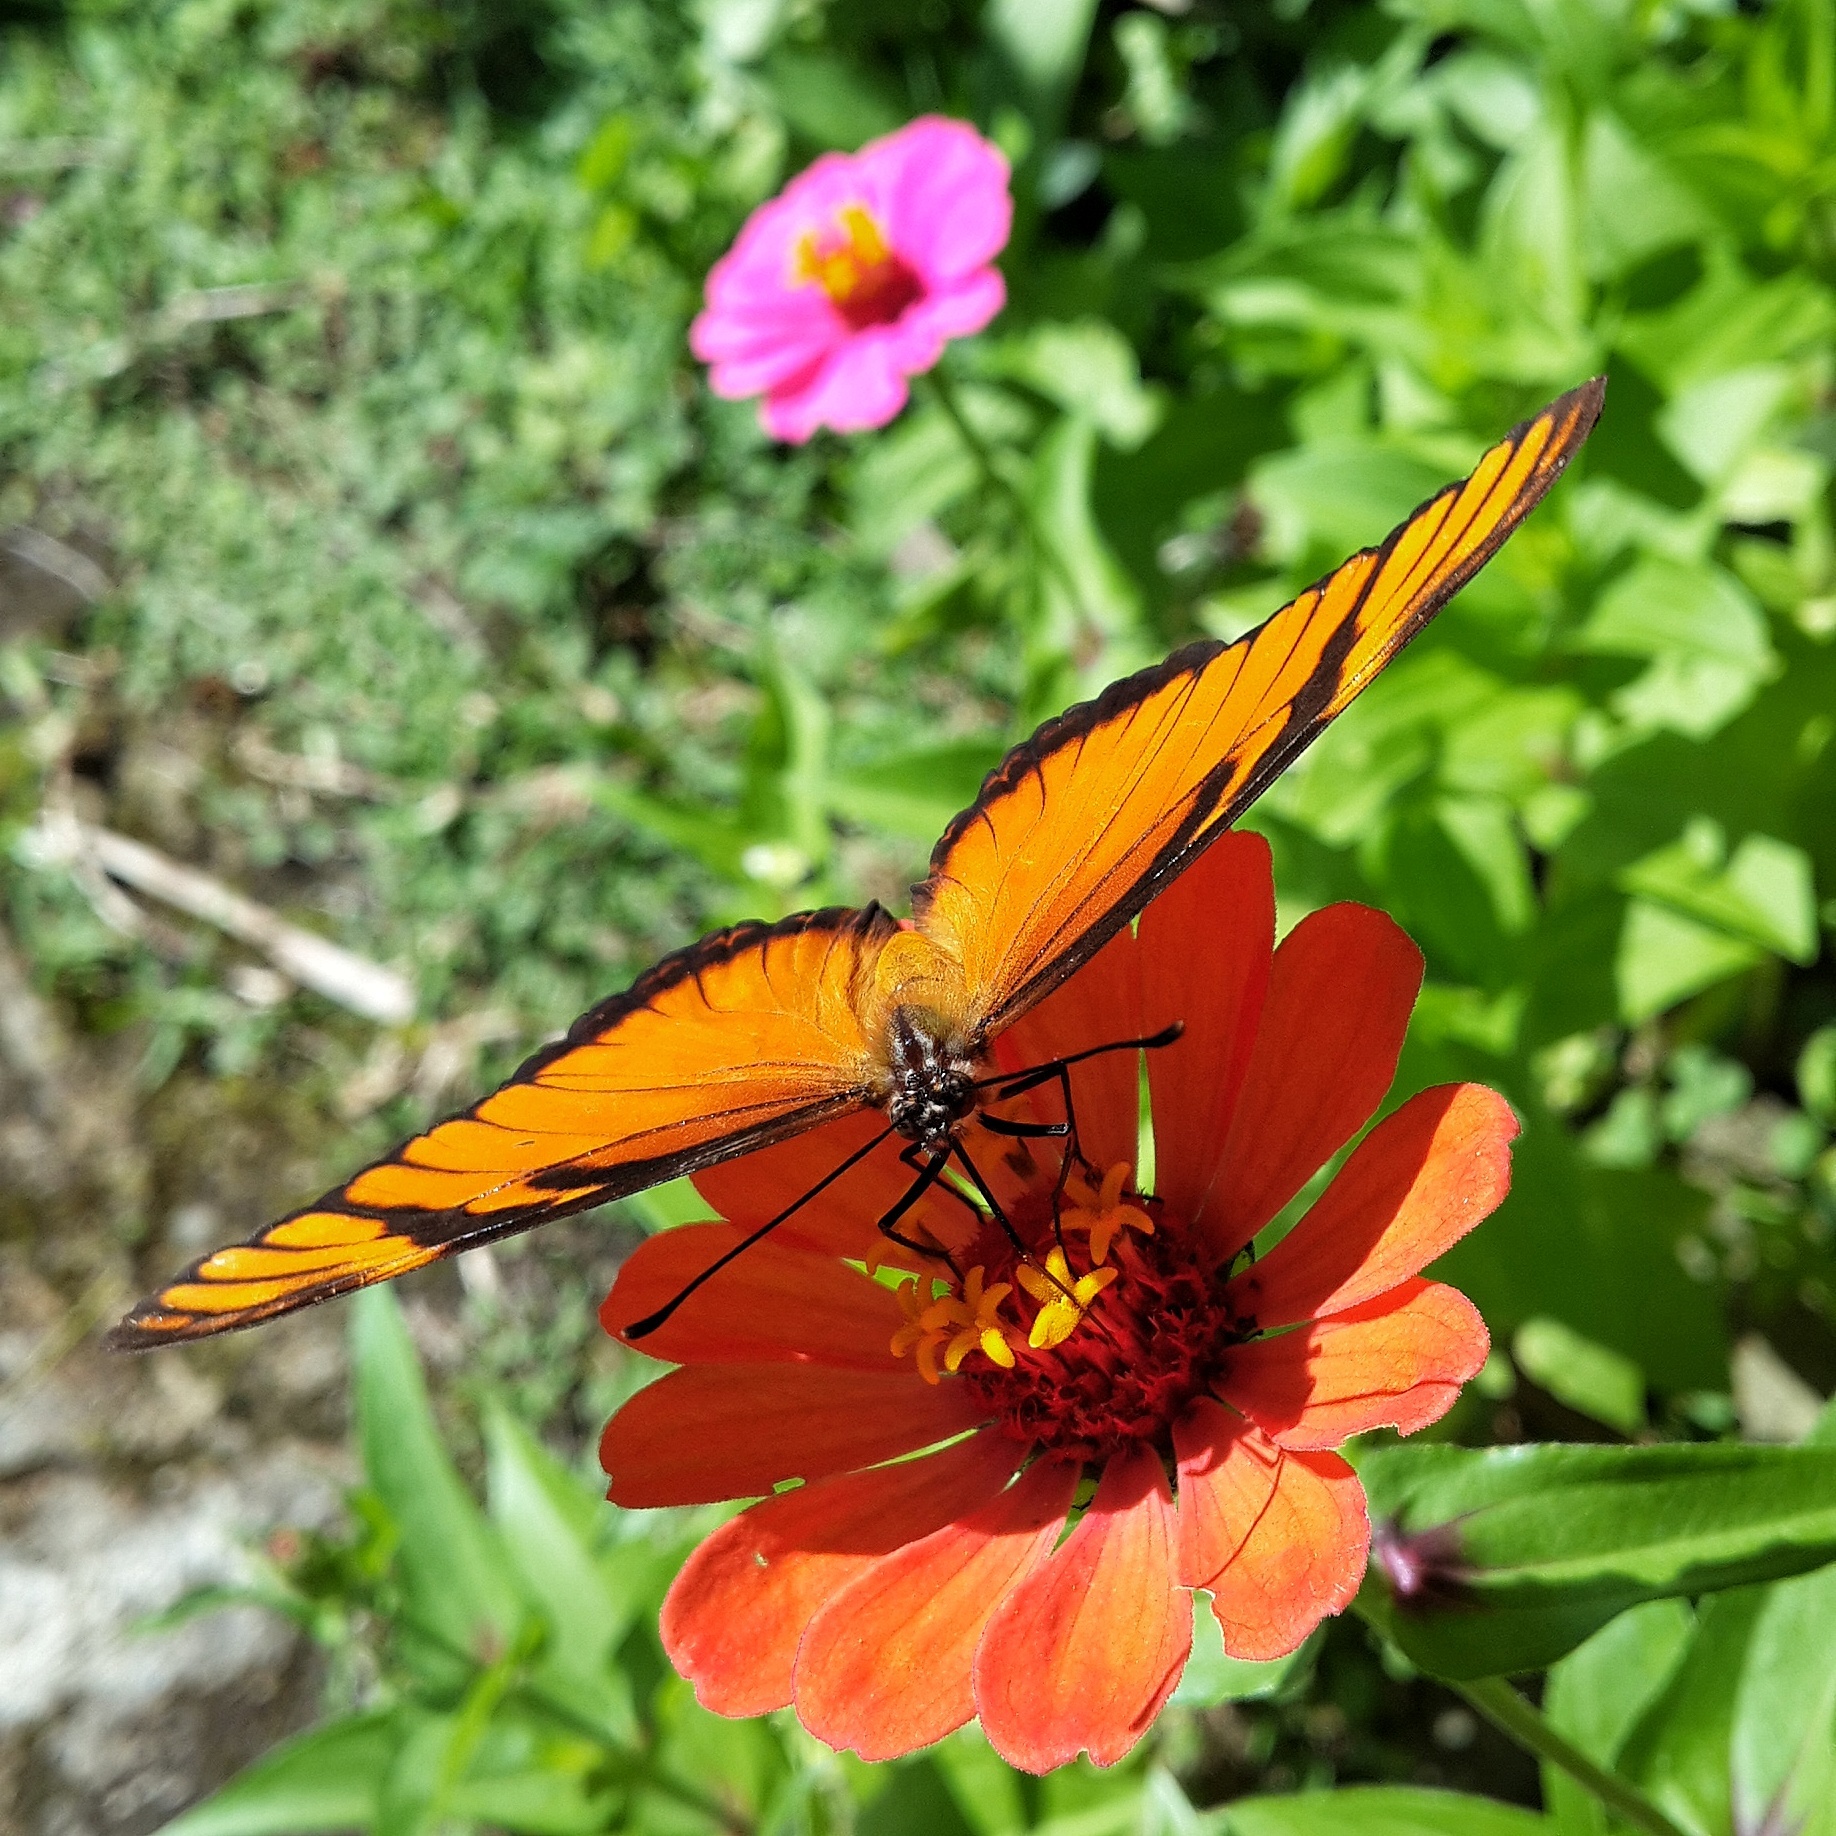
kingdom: Animalia
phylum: Arthropoda
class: Insecta
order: Lepidoptera
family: Nymphalidae
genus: Dione
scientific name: Dione juno
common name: Juno silverspot
